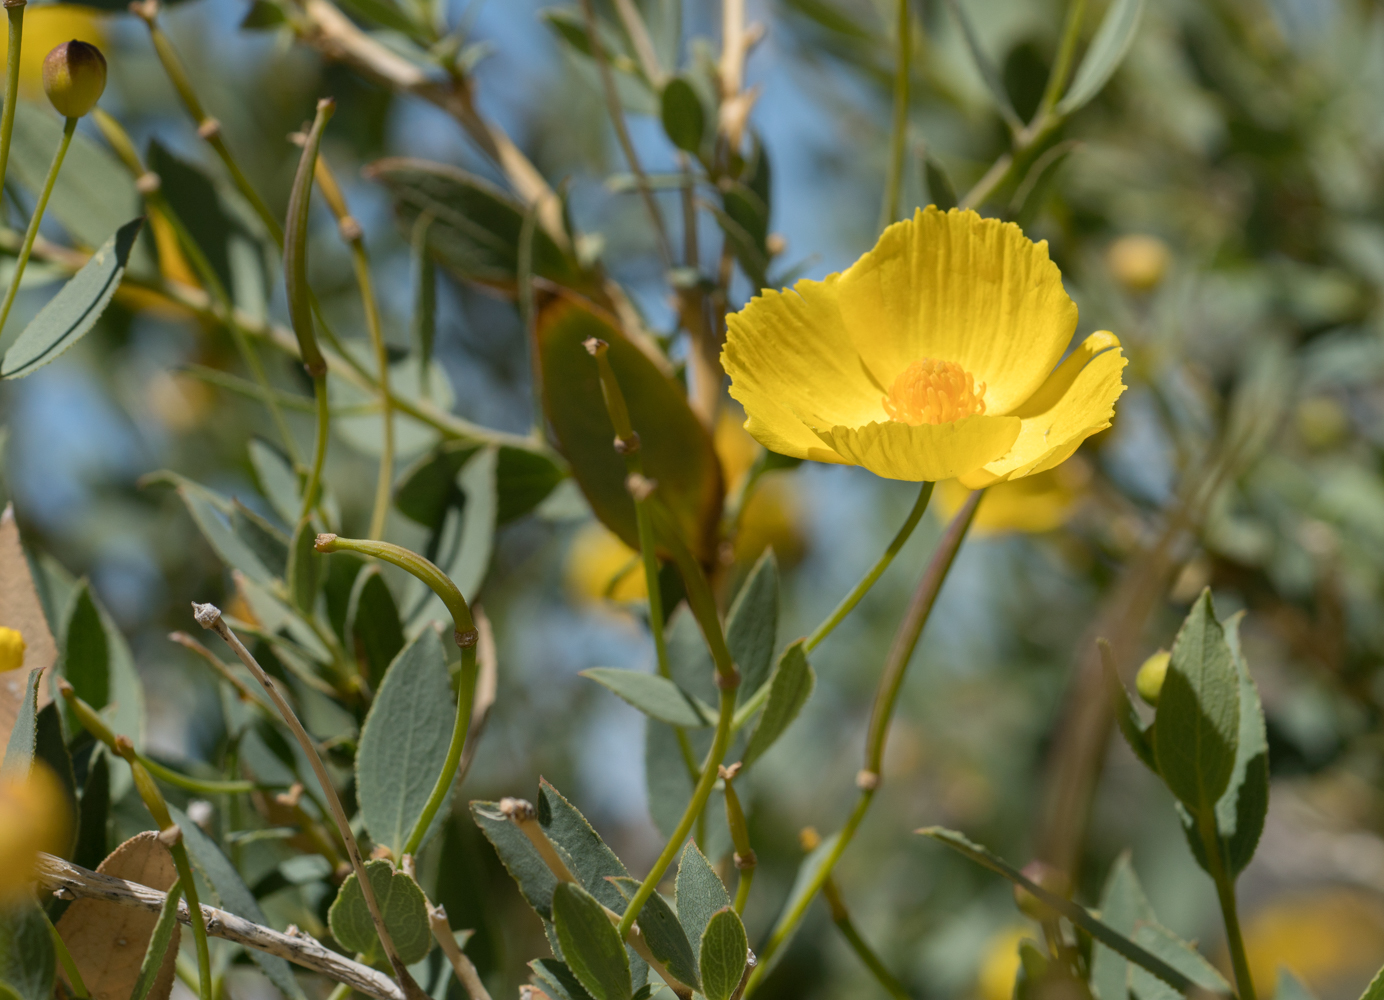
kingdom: Plantae
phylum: Tracheophyta
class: Magnoliopsida
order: Ranunculales
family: Papaveraceae
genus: Dendromecon
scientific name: Dendromecon rigida
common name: Tree poppy
